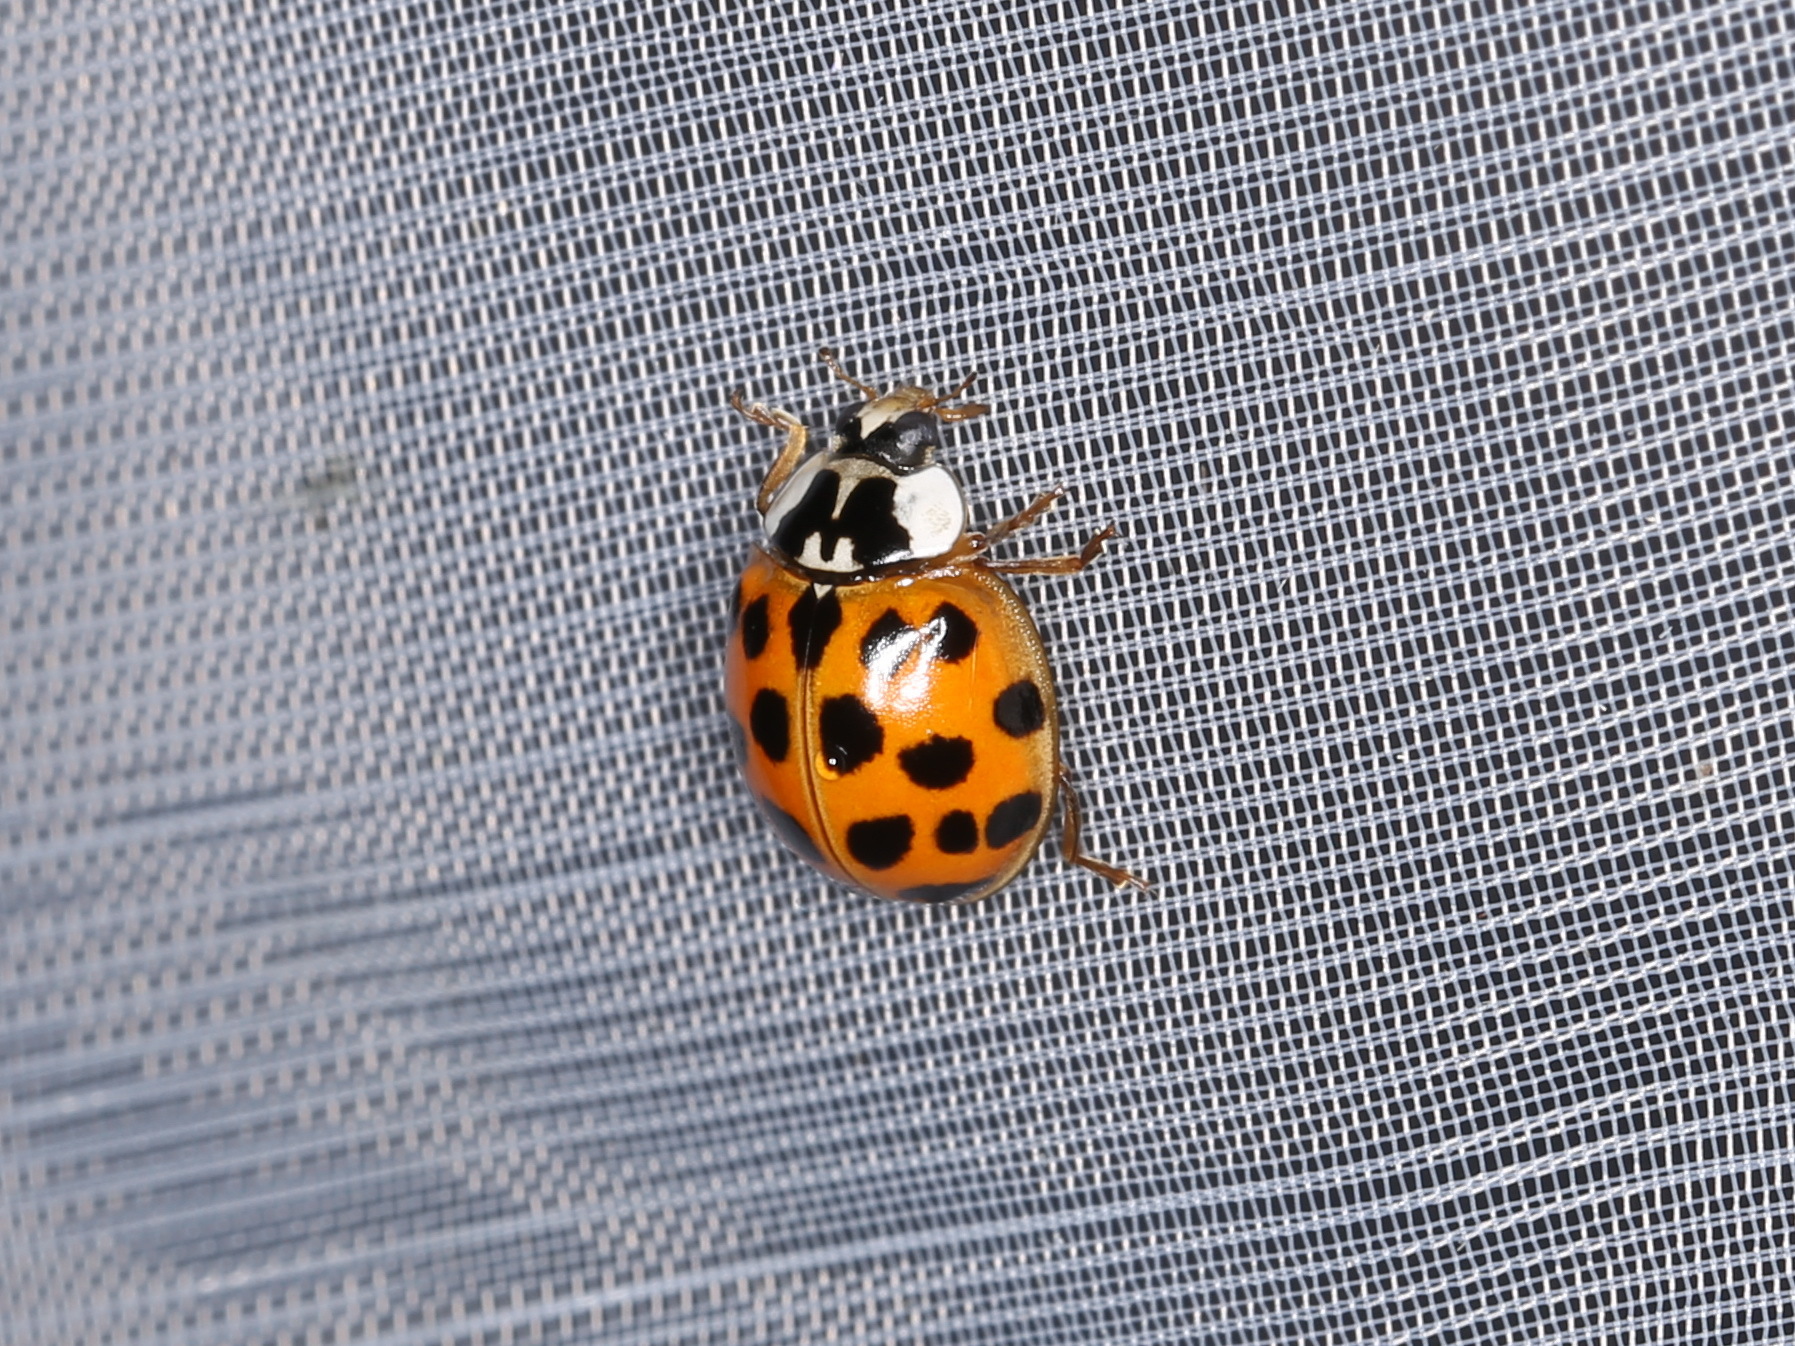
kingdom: Animalia
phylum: Arthropoda
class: Insecta
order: Coleoptera
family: Coccinellidae
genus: Harmonia
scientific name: Harmonia axyridis
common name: Harlequin ladybird
